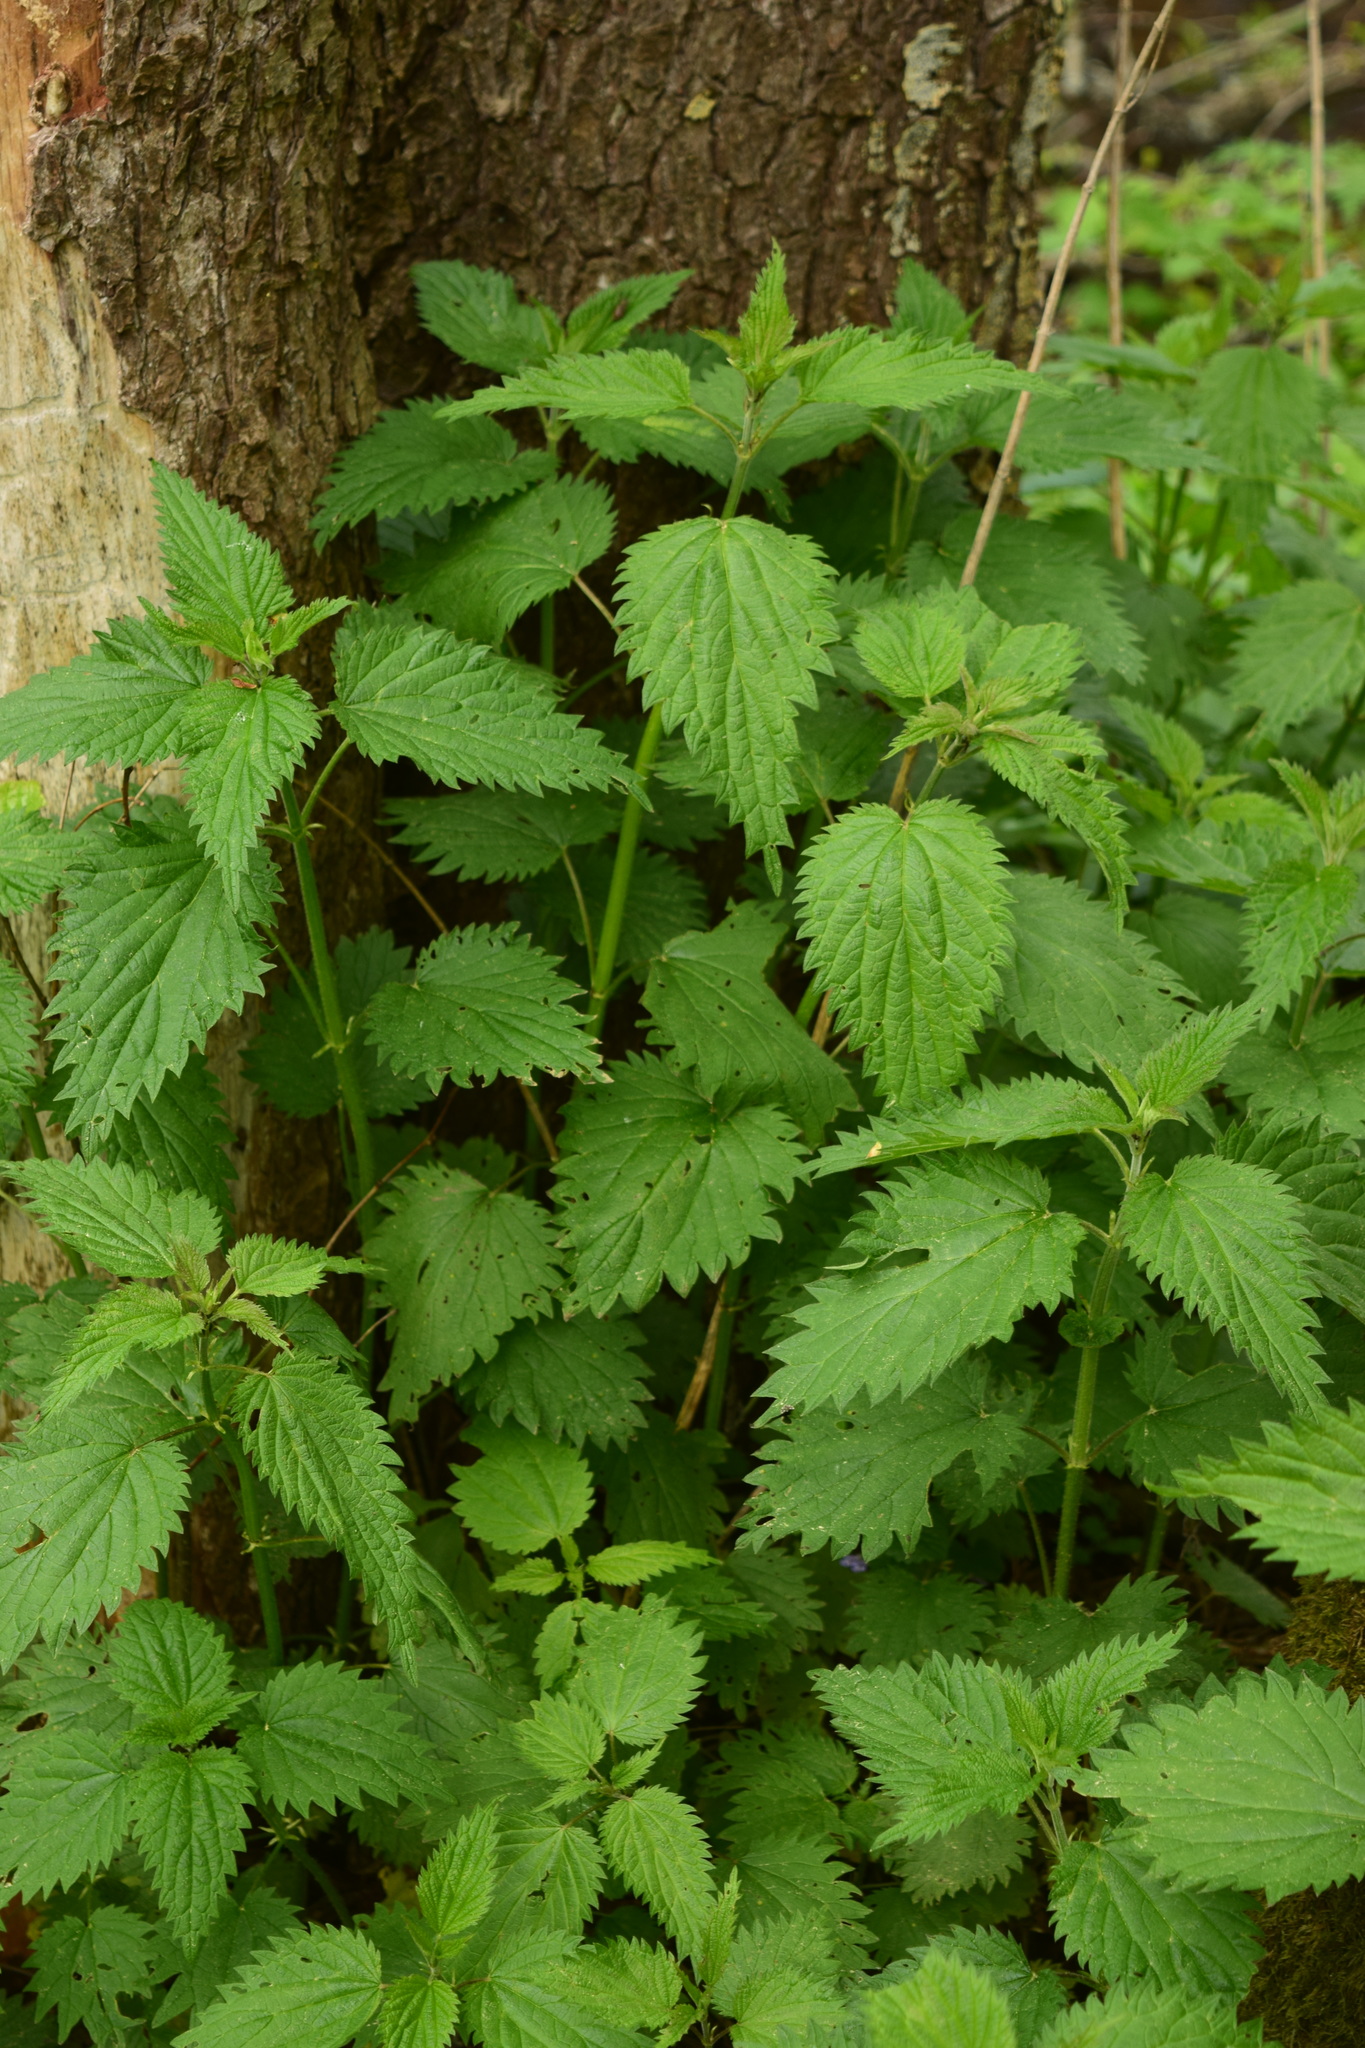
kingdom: Plantae
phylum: Tracheophyta
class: Magnoliopsida
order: Rosales
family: Urticaceae
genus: Urtica
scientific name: Urtica dioica
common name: Common nettle
